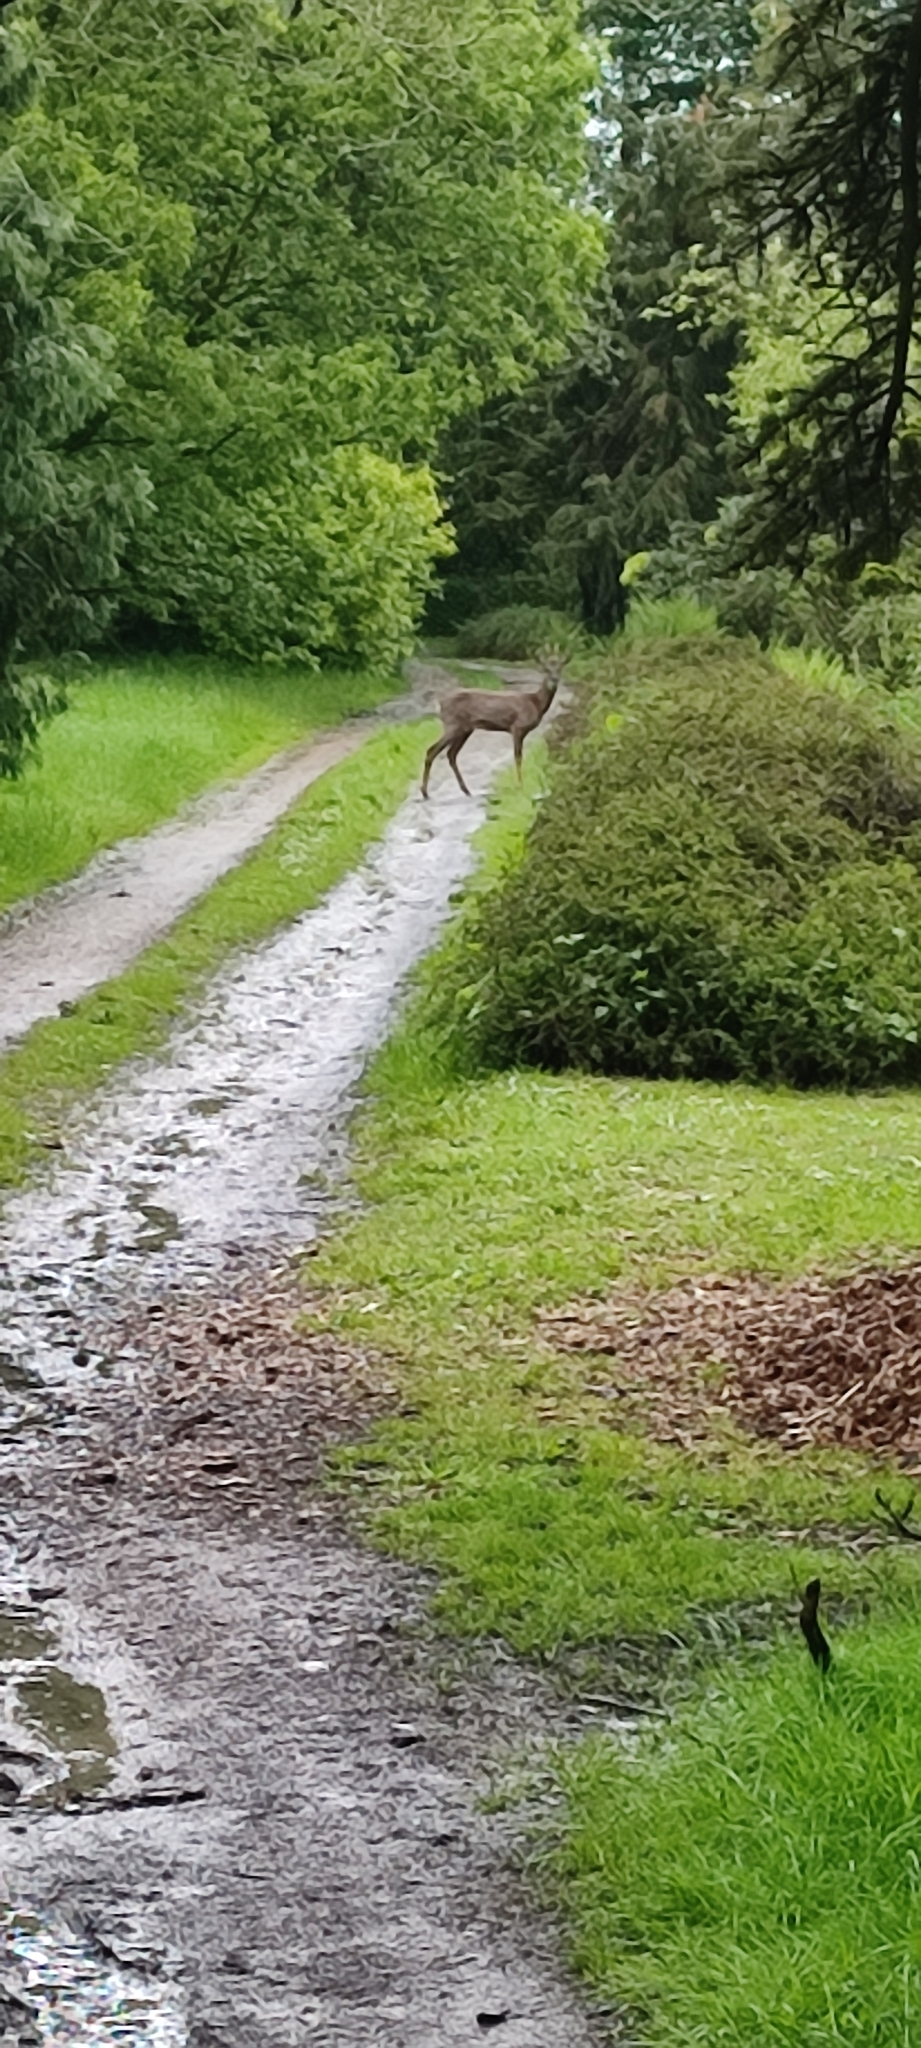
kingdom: Animalia
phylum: Chordata
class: Mammalia
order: Artiodactyla
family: Cervidae
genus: Capreolus
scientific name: Capreolus capreolus
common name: Western roe deer
